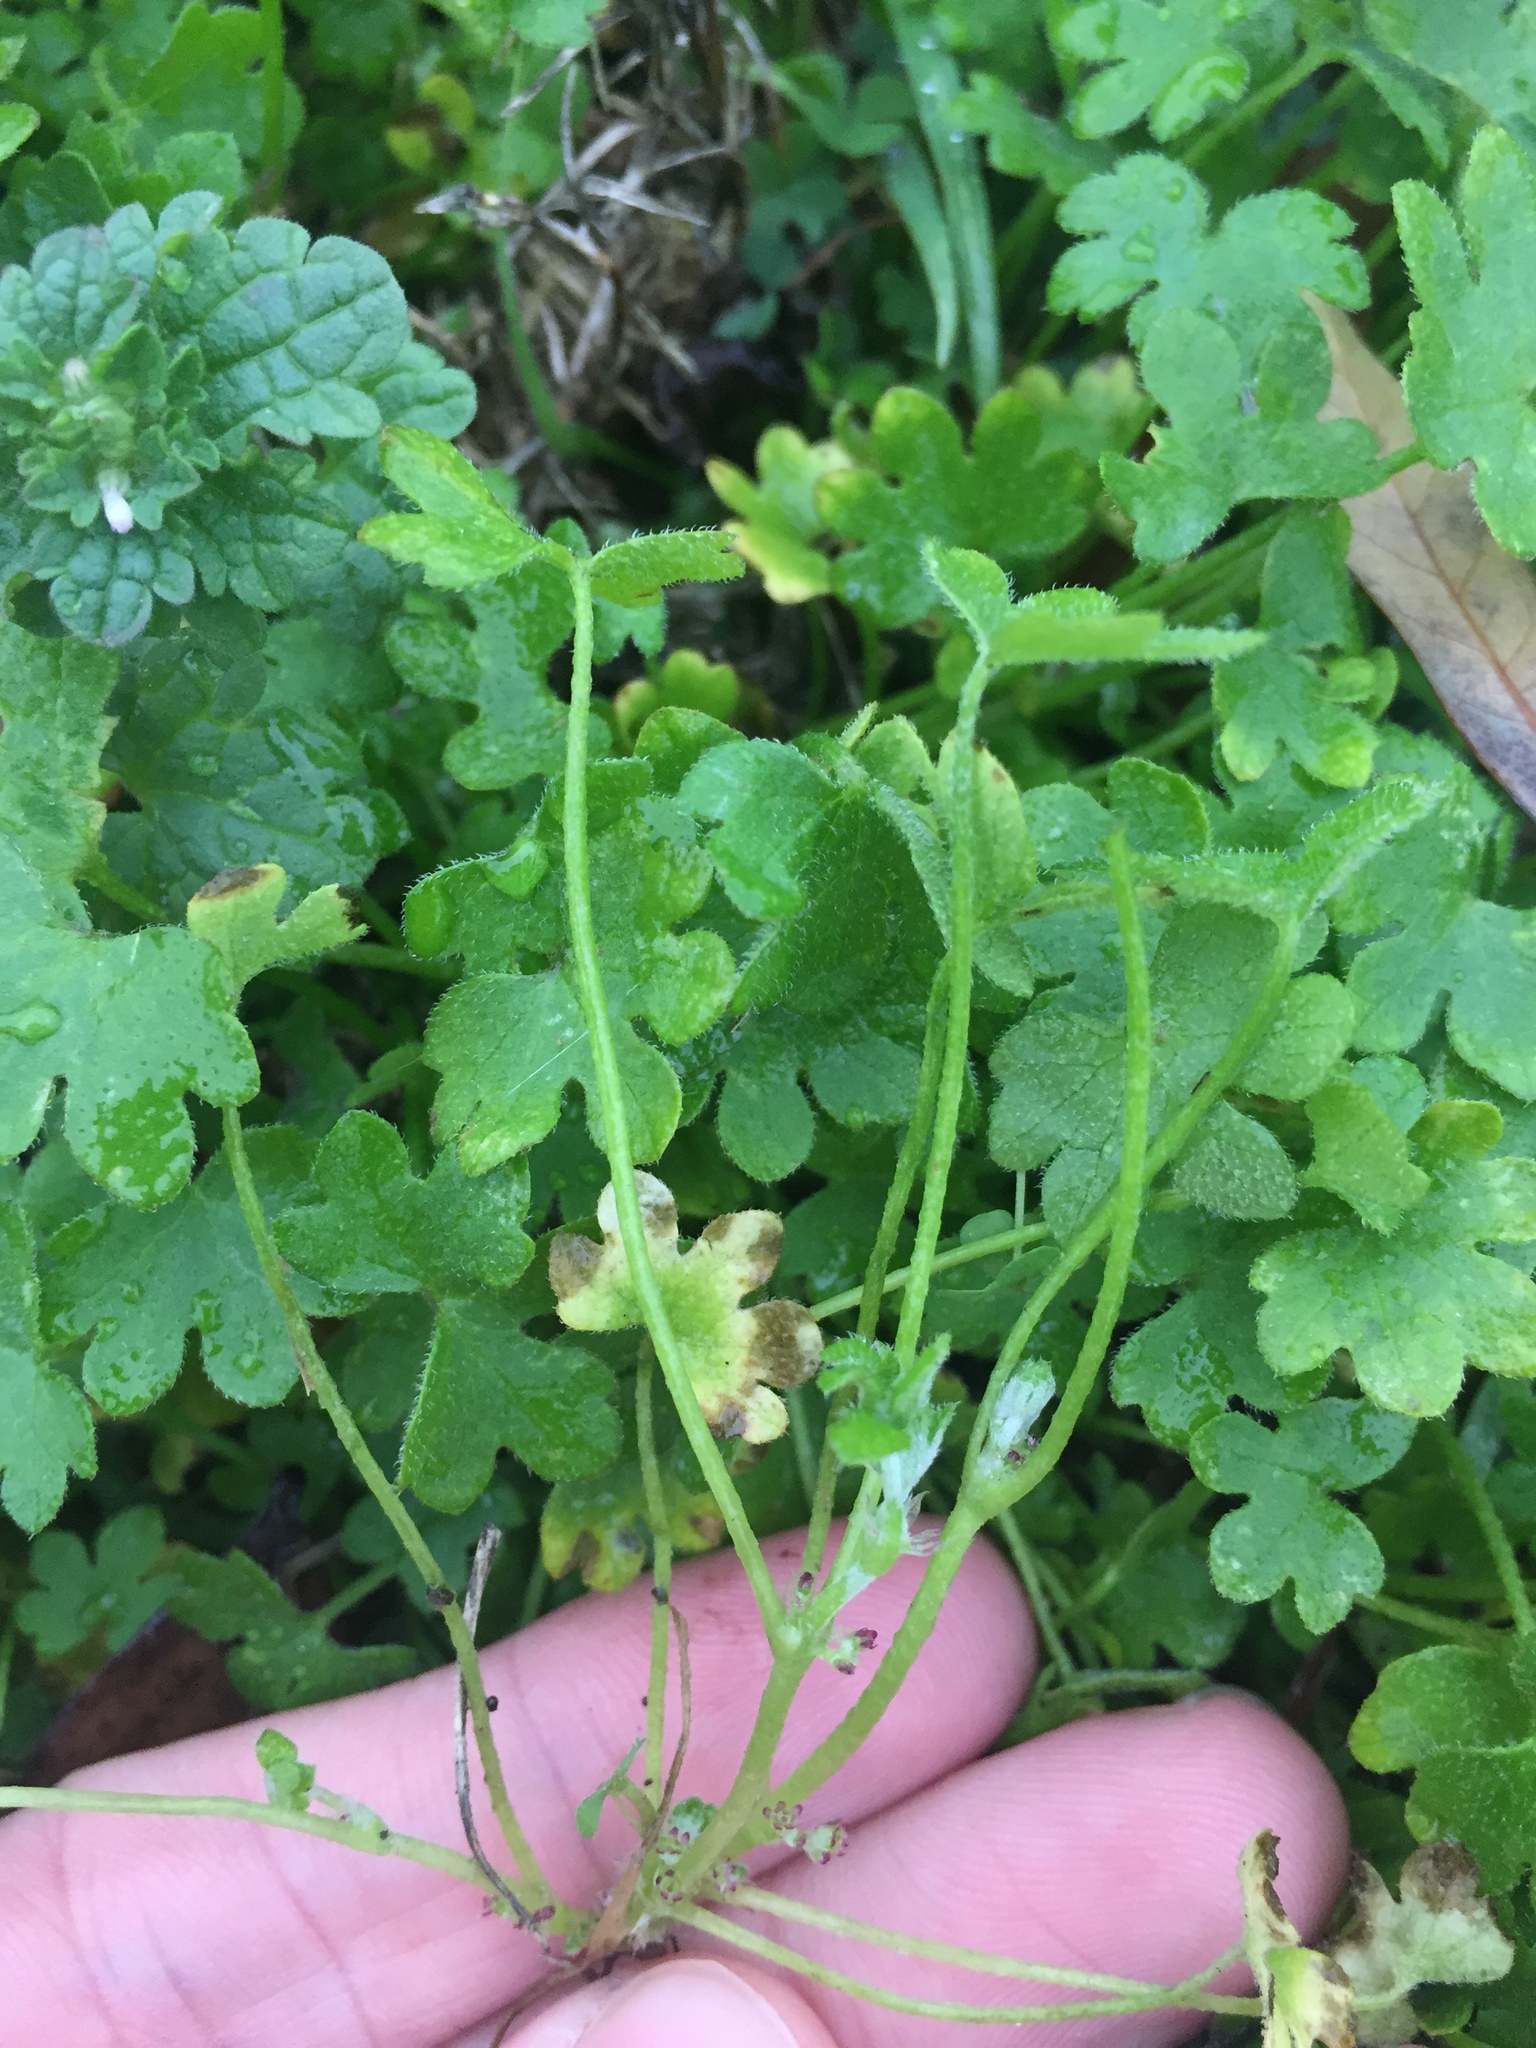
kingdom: Plantae
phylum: Tracheophyta
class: Magnoliopsida
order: Apiales
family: Apiaceae
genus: Bowlesia
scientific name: Bowlesia incana
